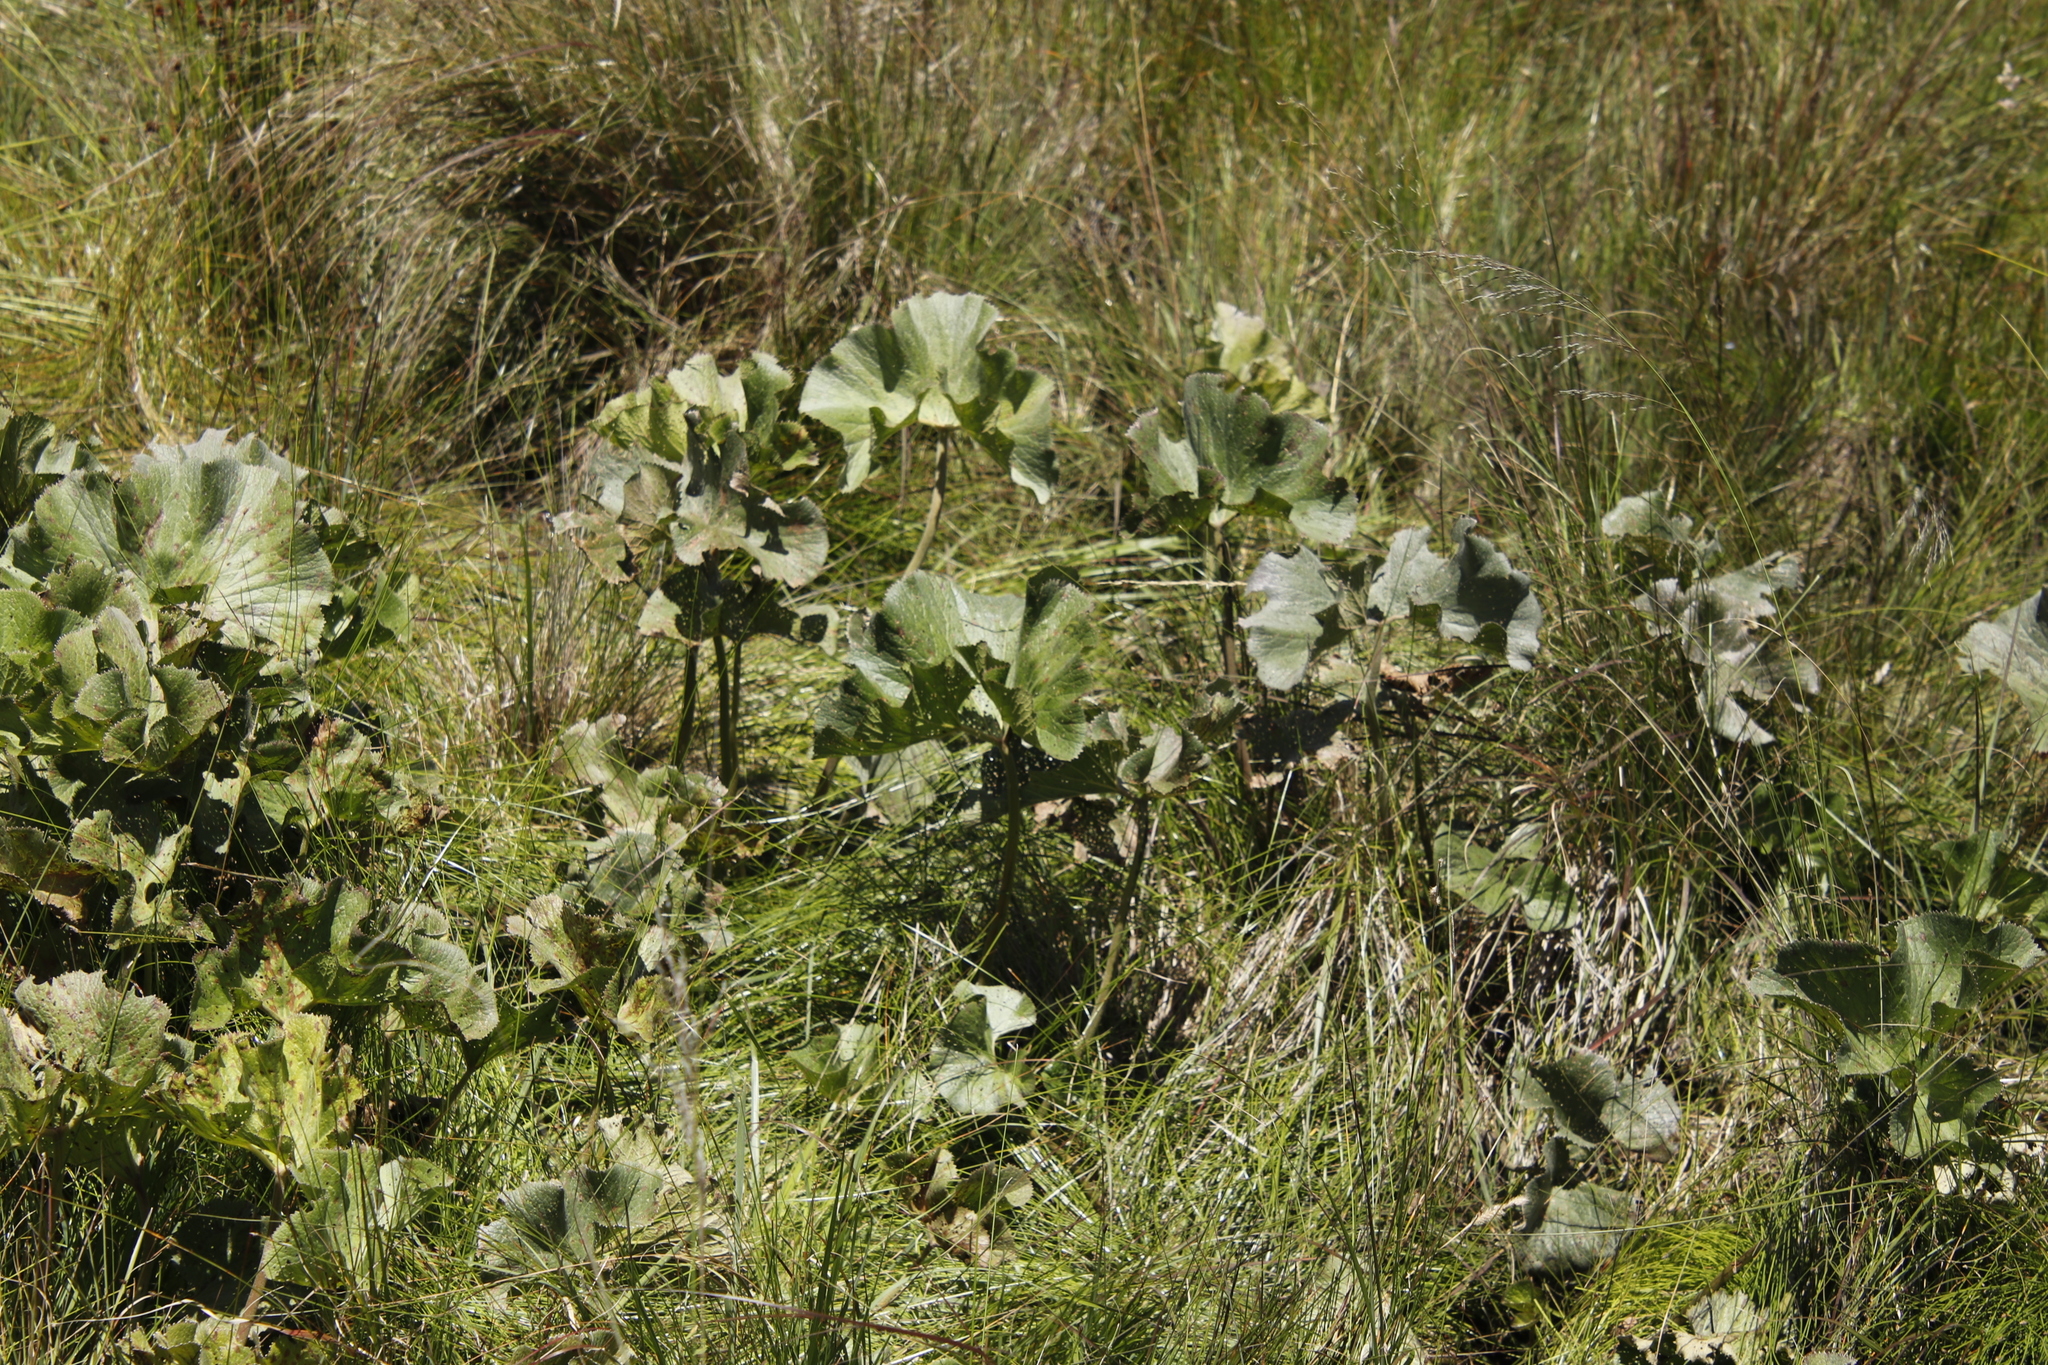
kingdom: Plantae
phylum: Tracheophyta
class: Magnoliopsida
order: Gunnerales
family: Gunneraceae
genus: Gunnera
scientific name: Gunnera perpensa
